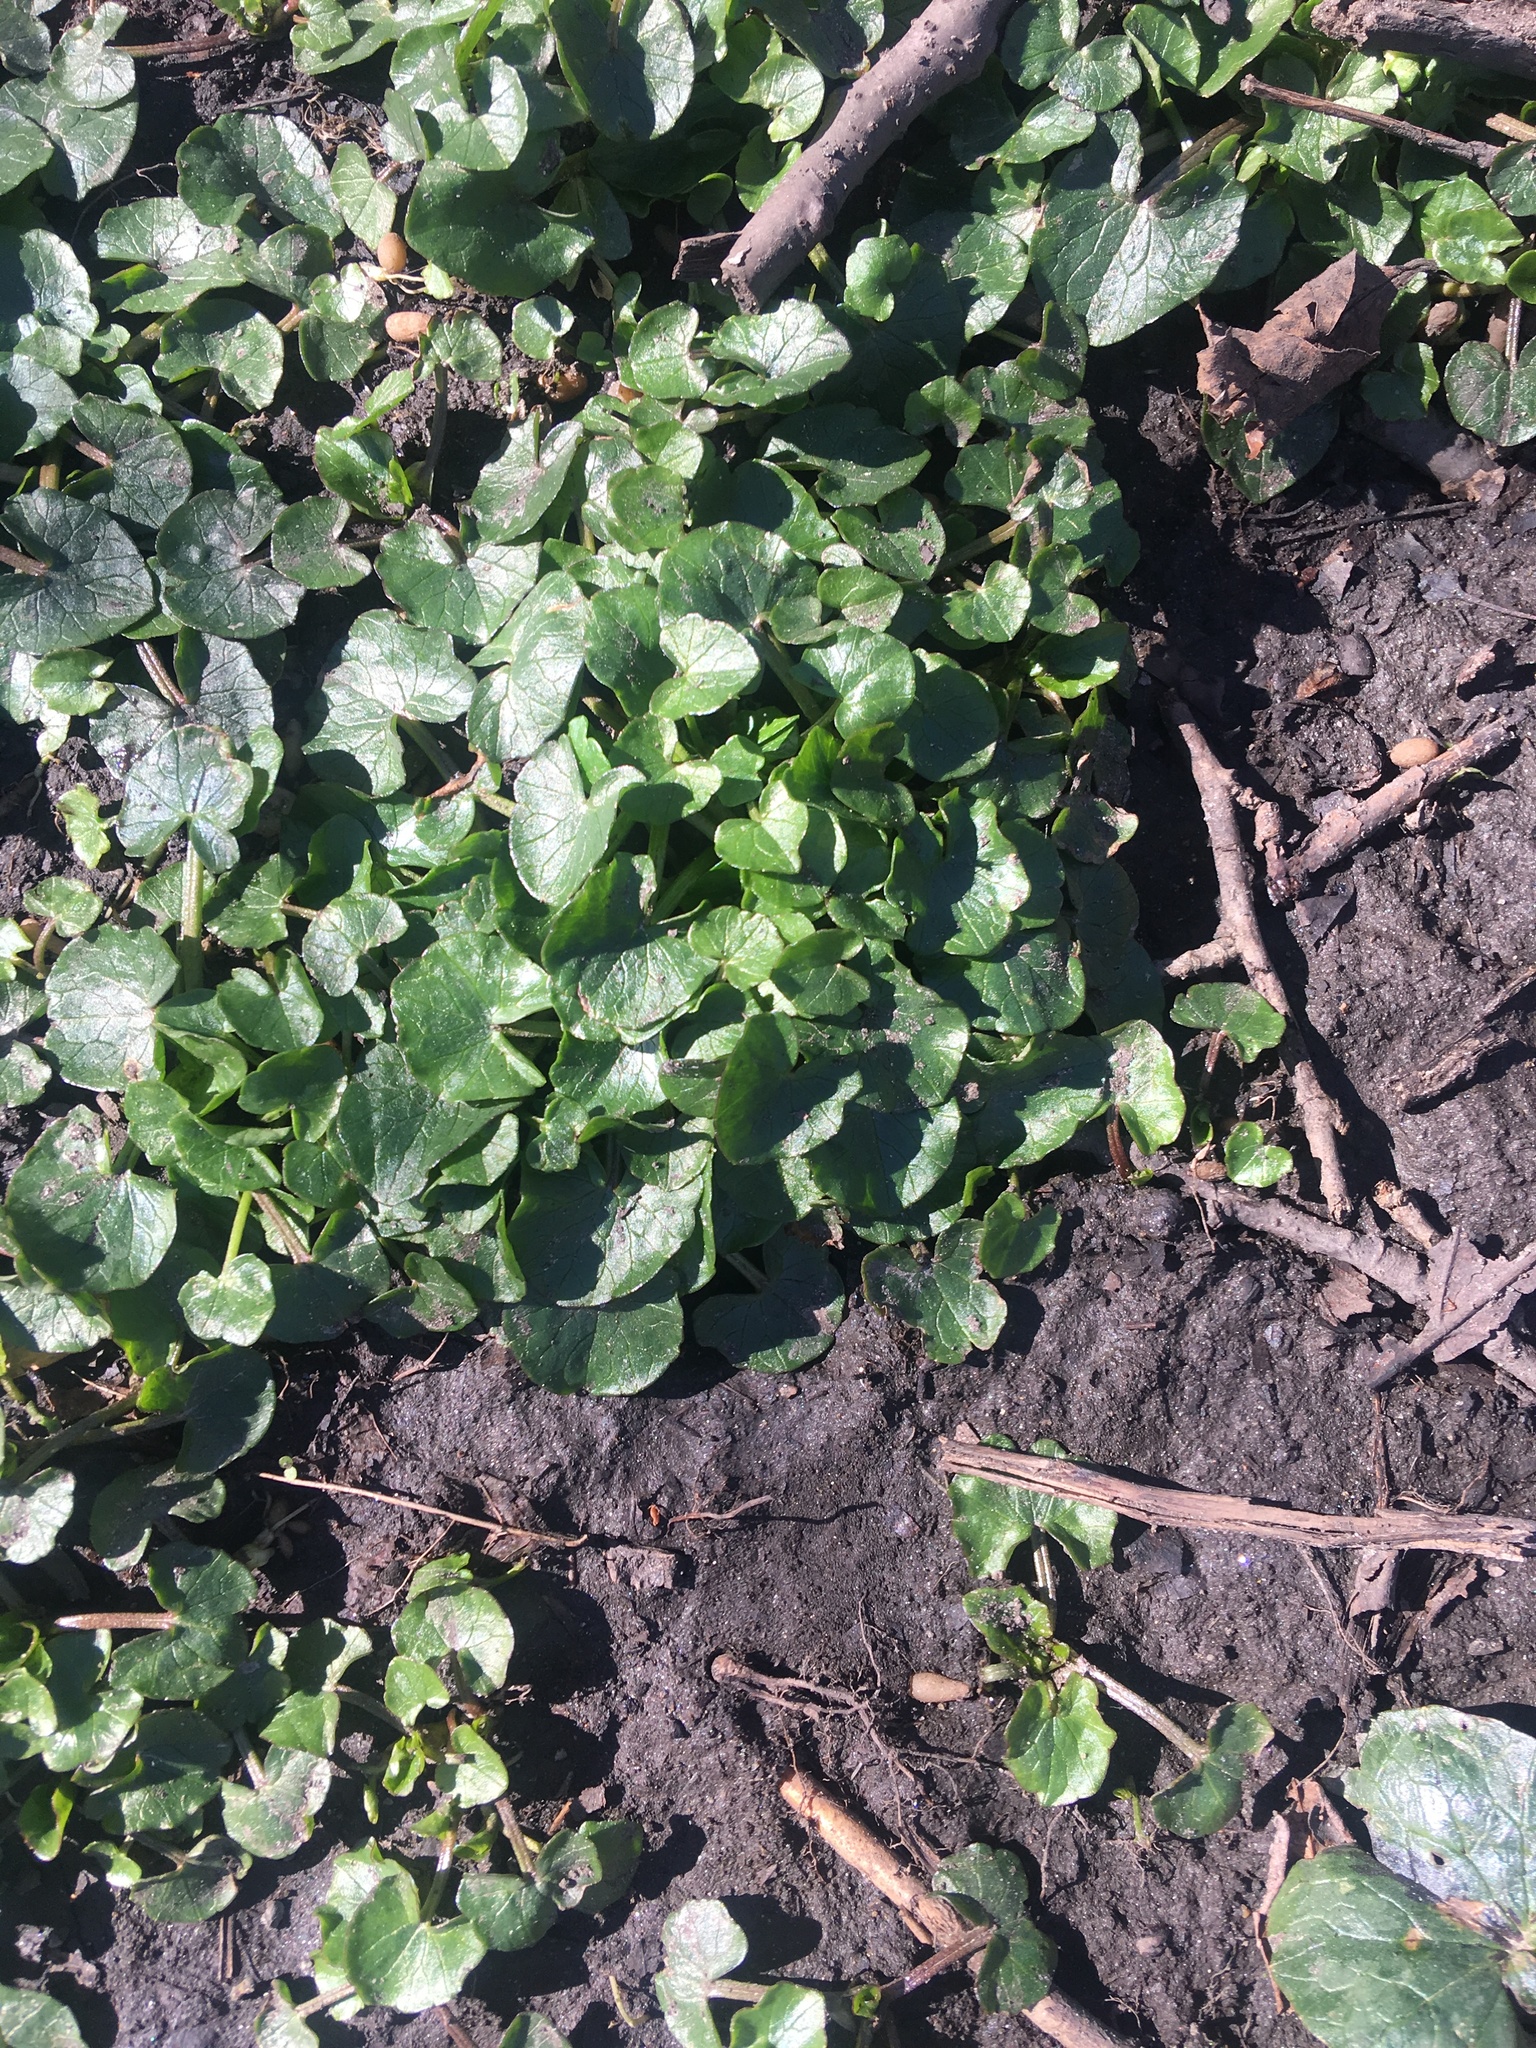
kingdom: Plantae
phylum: Tracheophyta
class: Magnoliopsida
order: Ranunculales
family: Ranunculaceae
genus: Ficaria
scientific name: Ficaria verna
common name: Lesser celandine
